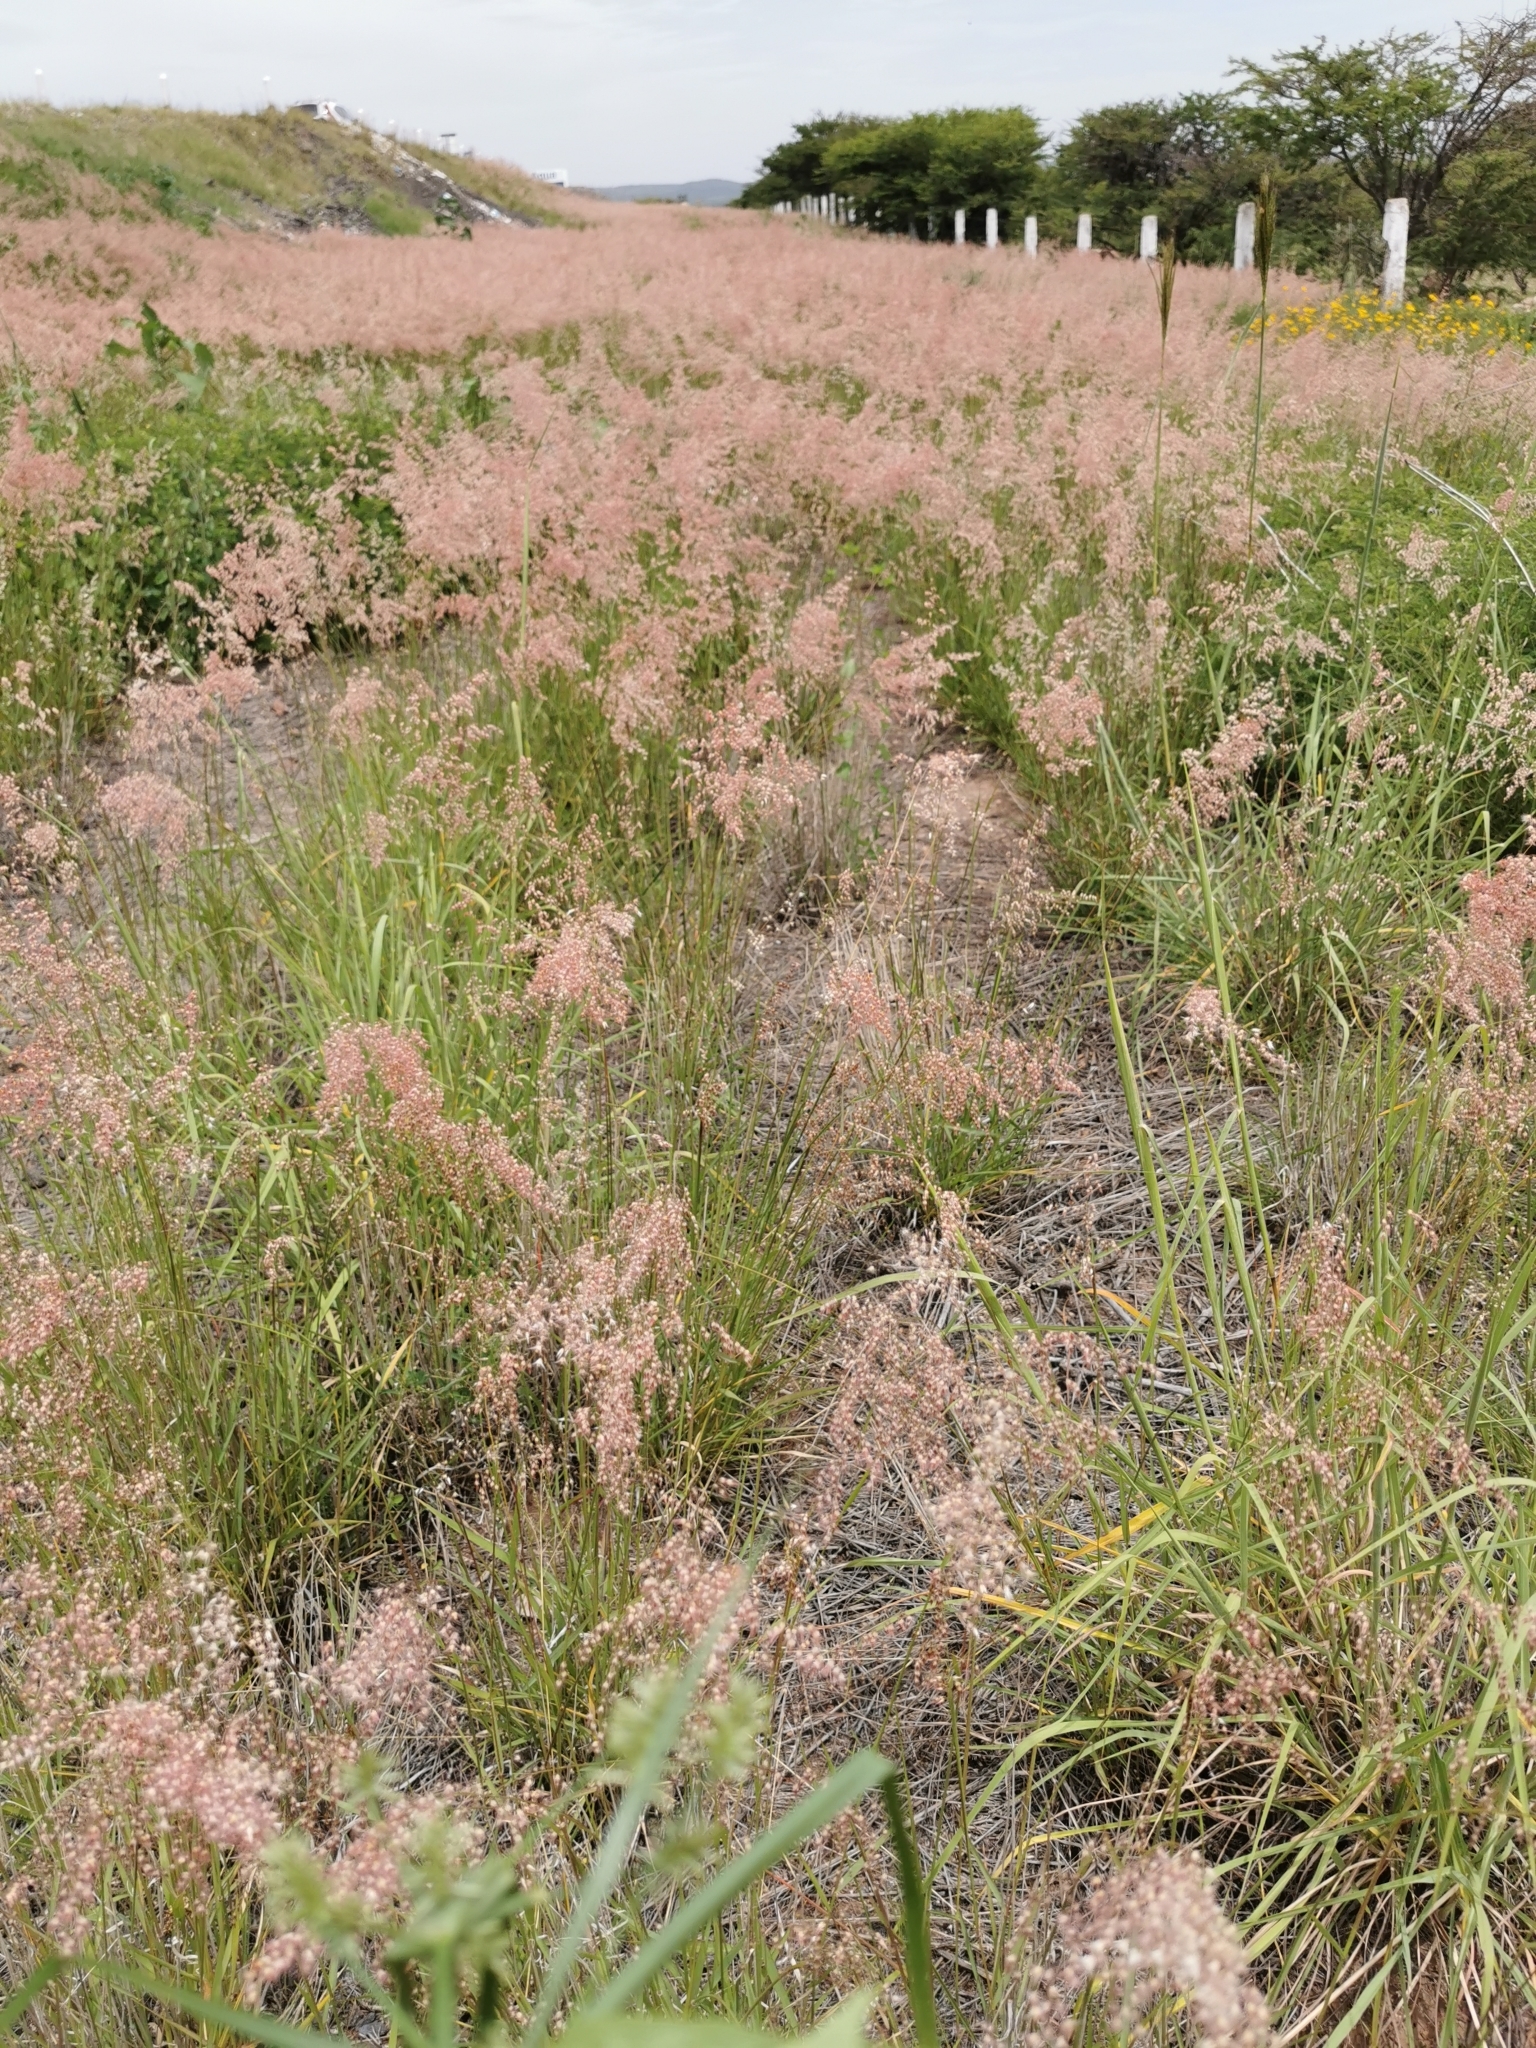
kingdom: Plantae
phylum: Tracheophyta
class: Liliopsida
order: Poales
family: Poaceae
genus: Melinis
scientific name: Melinis repens
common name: Rose natal grass
